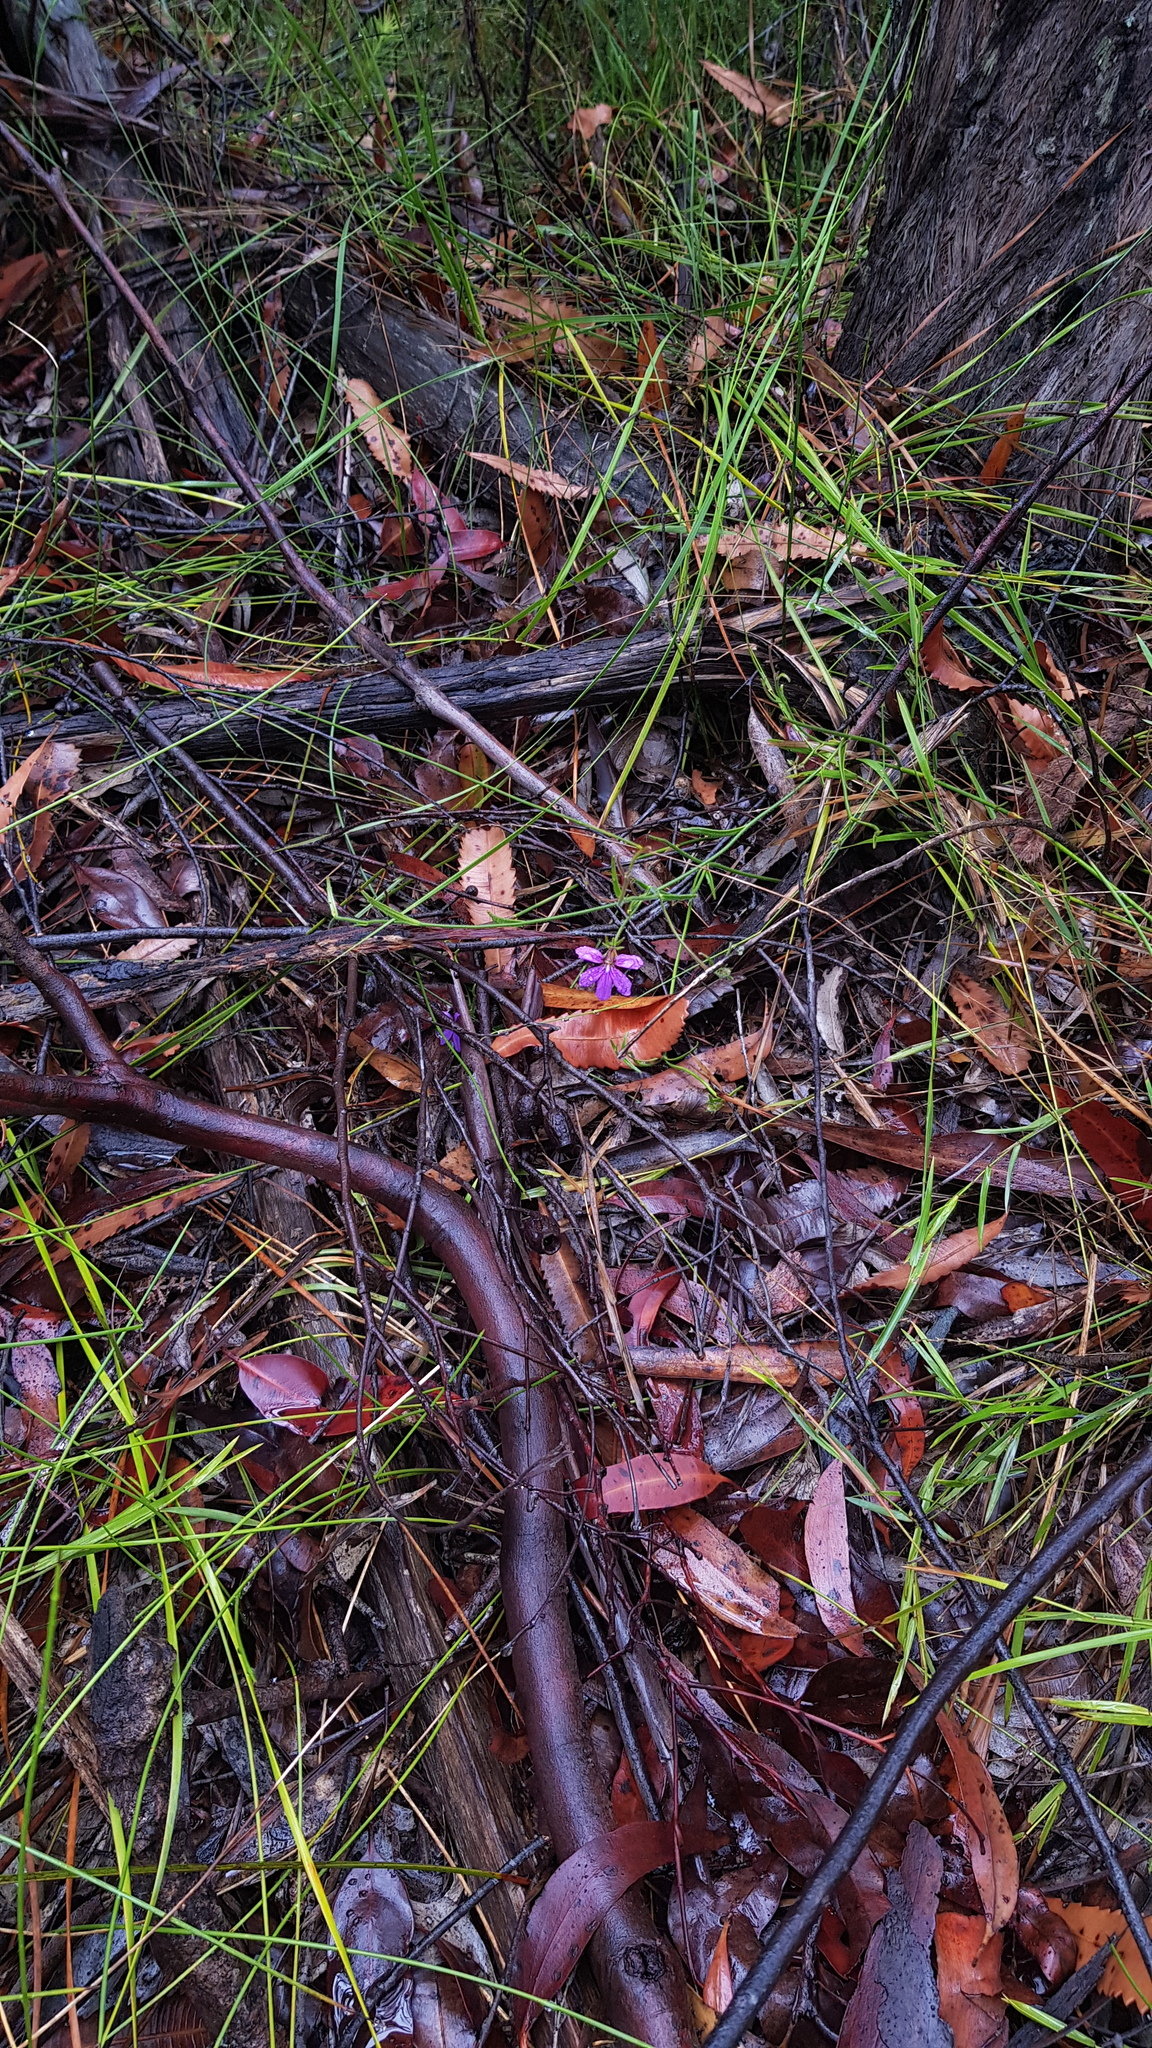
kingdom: Plantae
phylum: Tracheophyta
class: Magnoliopsida
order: Asterales
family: Goodeniaceae
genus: Scaevola
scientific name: Scaevola ramosissima
